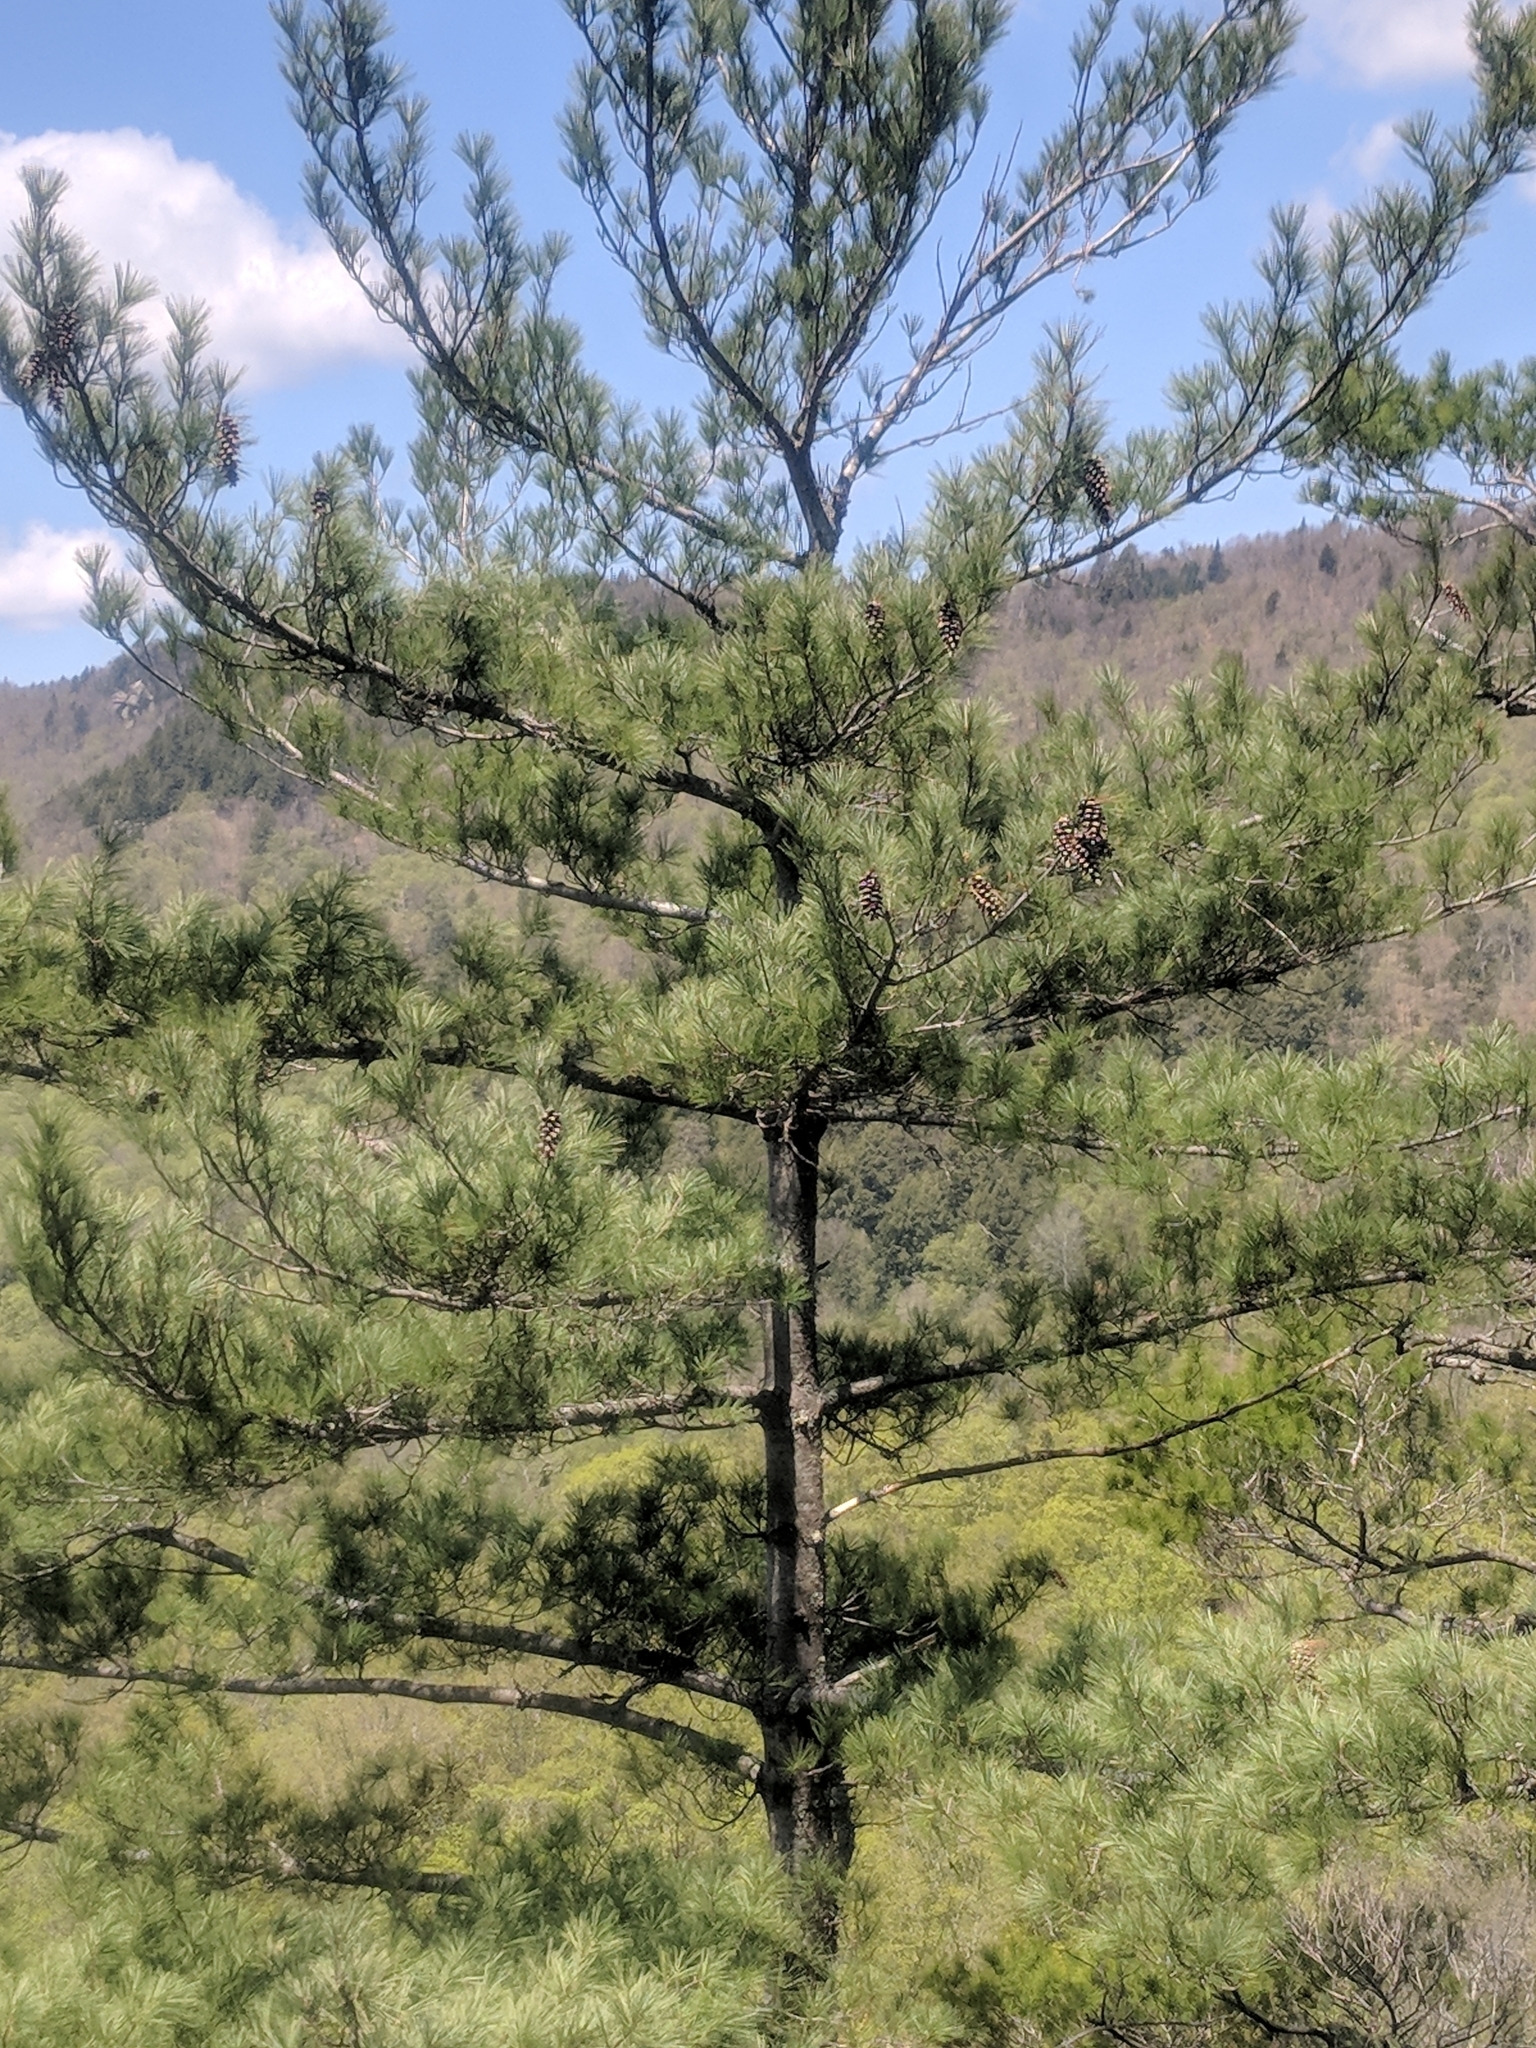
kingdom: Plantae
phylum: Tracheophyta
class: Pinopsida
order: Pinales
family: Pinaceae
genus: Pinus
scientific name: Pinus strobus
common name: Weymouth pine
